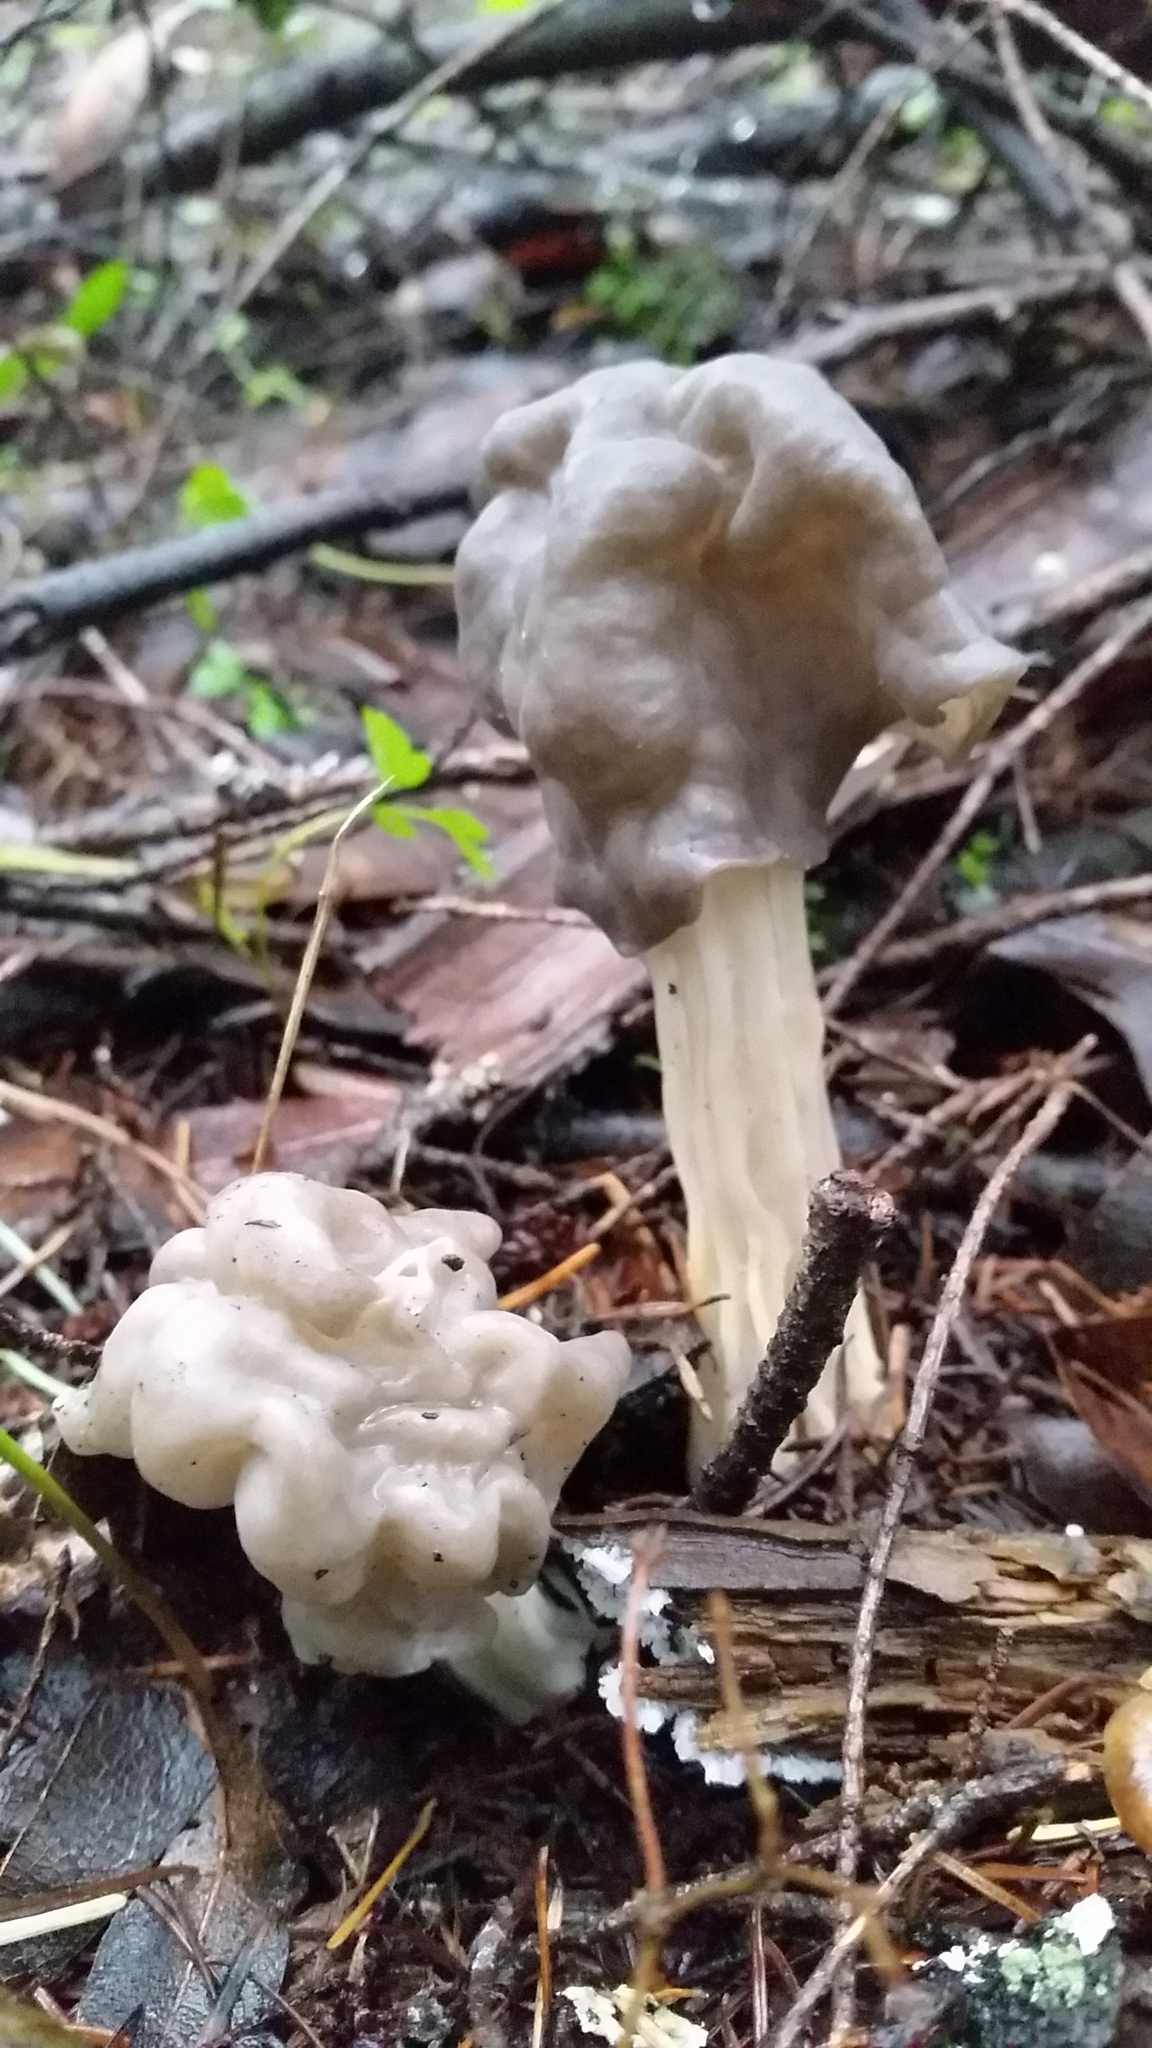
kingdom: Fungi
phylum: Ascomycota
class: Pezizomycetes
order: Pezizales
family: Helvellaceae
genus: Helvella
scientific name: Helvella vespertina
